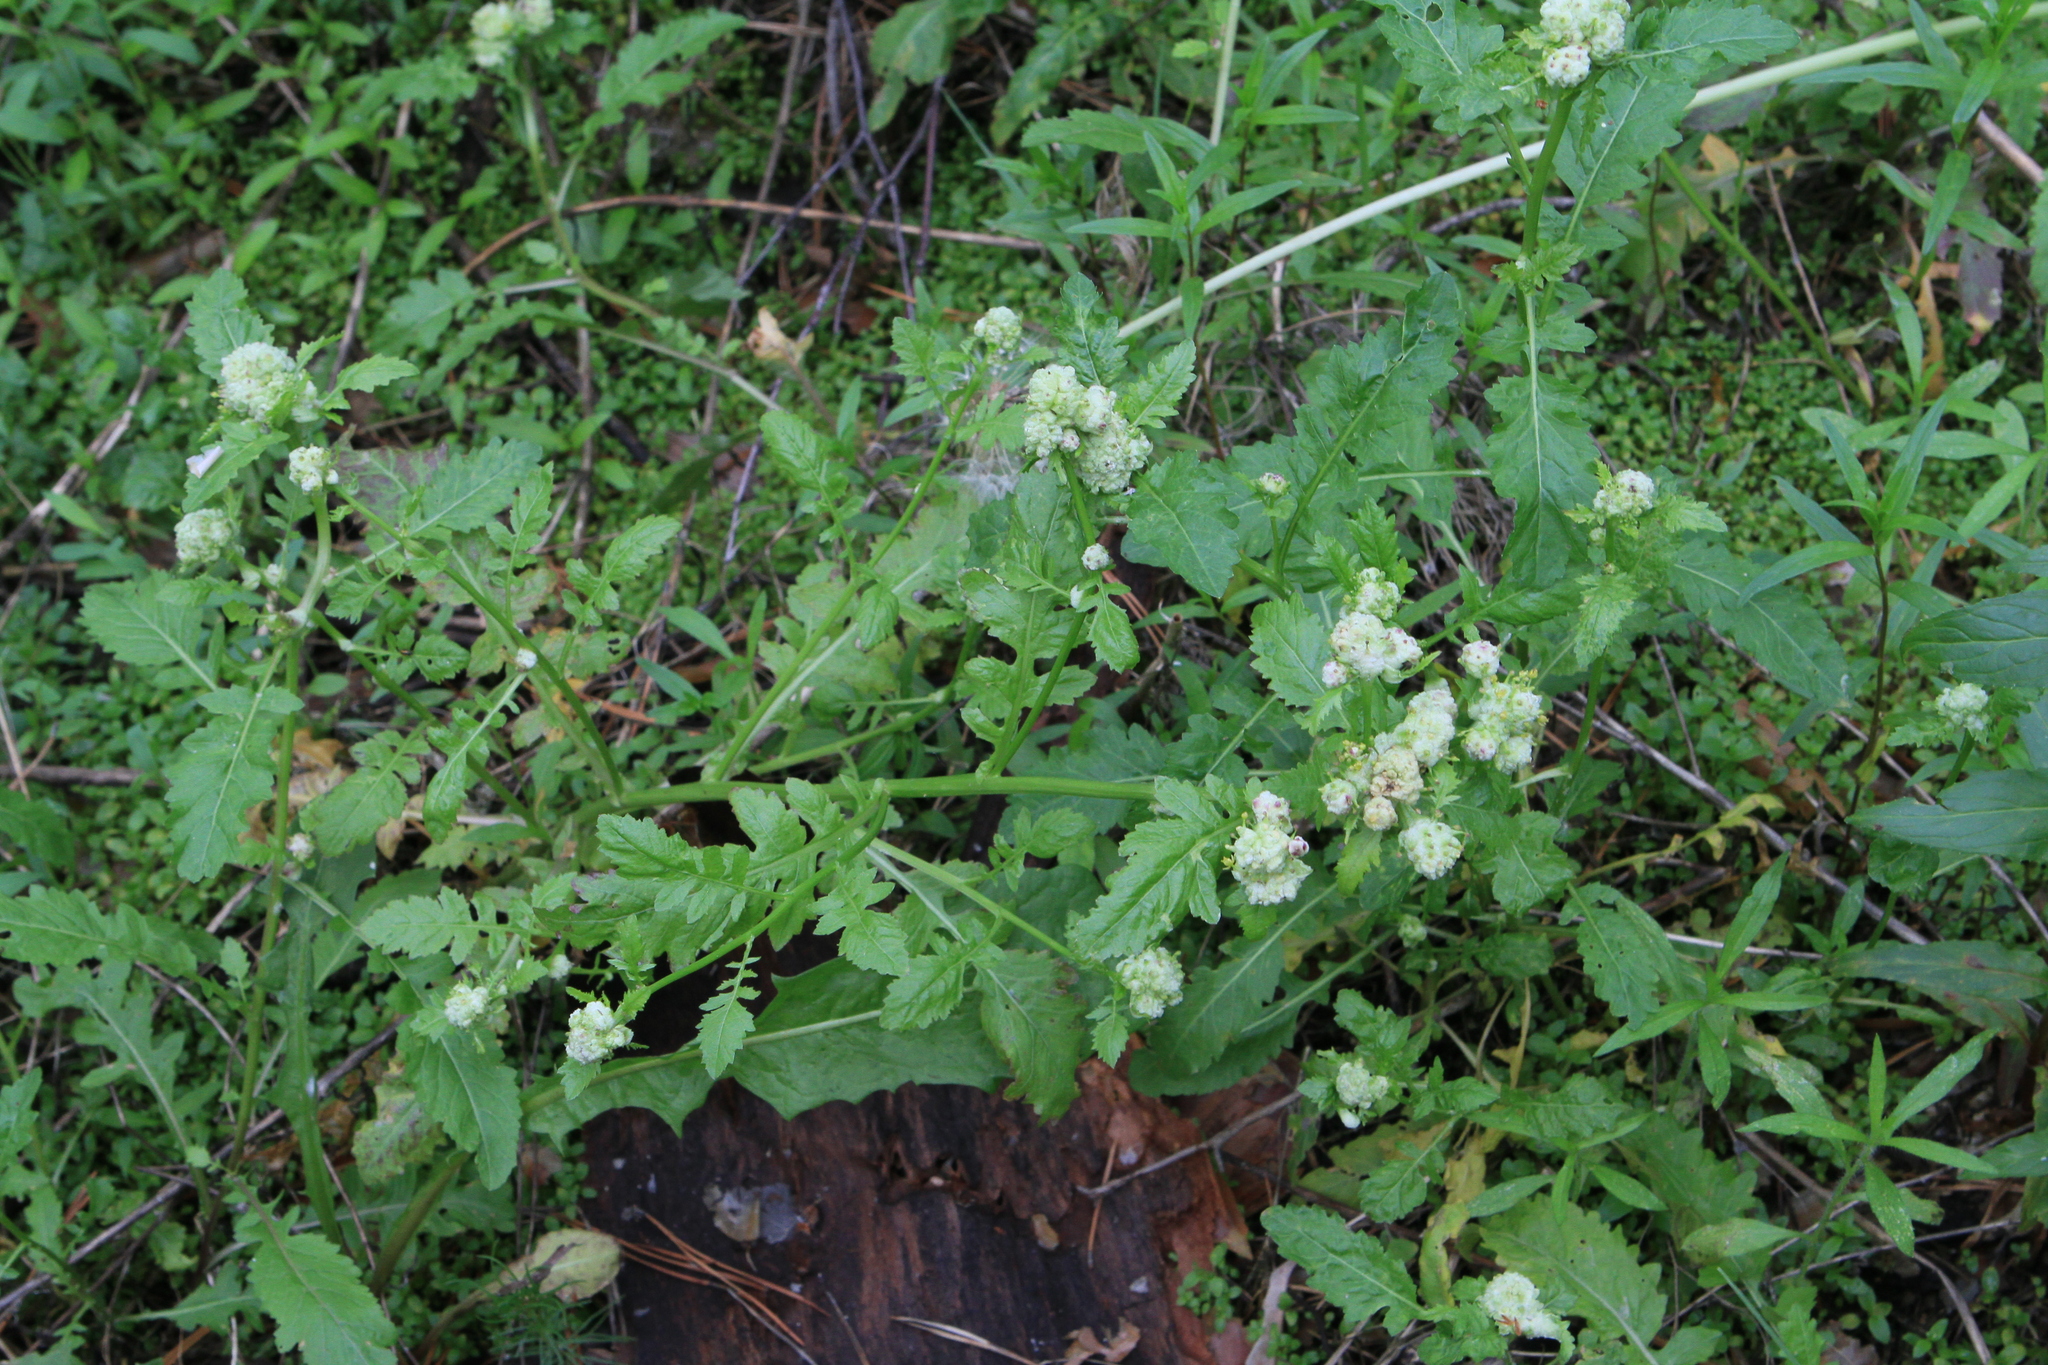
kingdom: Plantae
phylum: Tracheophyta
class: Magnoliopsida
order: Brassicales
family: Brassicaceae
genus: Rorippa
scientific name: Rorippa palustris
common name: Marsh yellow-cress
